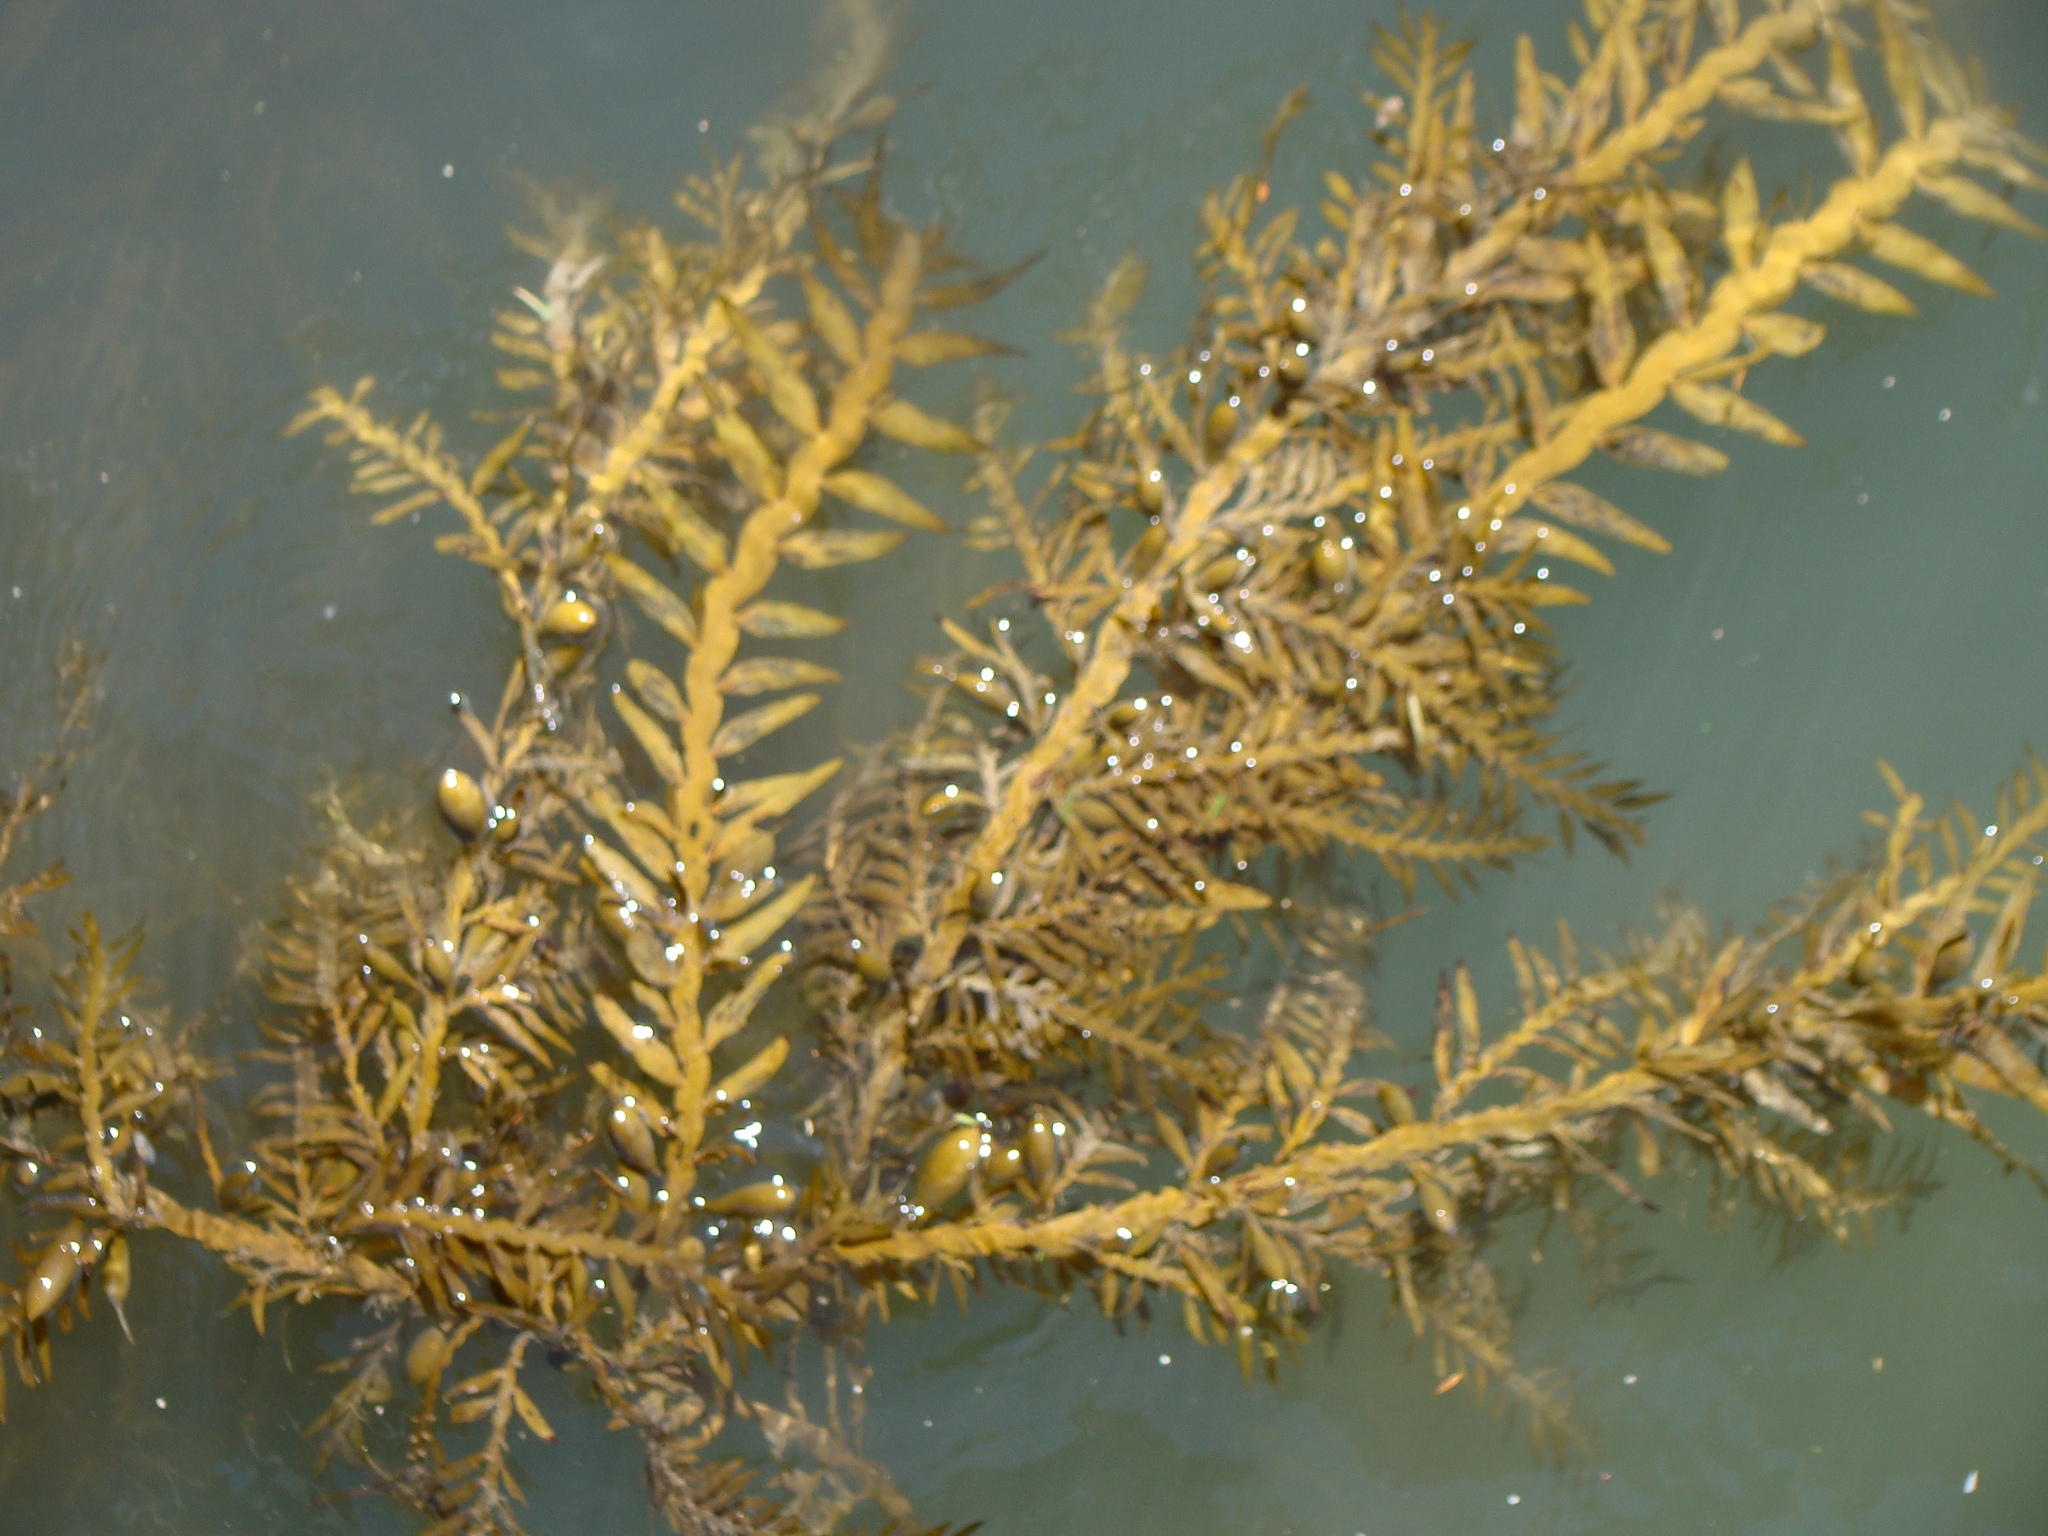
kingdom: Chromista
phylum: Ochrophyta
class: Phaeophyceae
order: Fucales
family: Sargassaceae
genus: Carpophyllum
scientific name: Carpophyllum maschalocarpum
